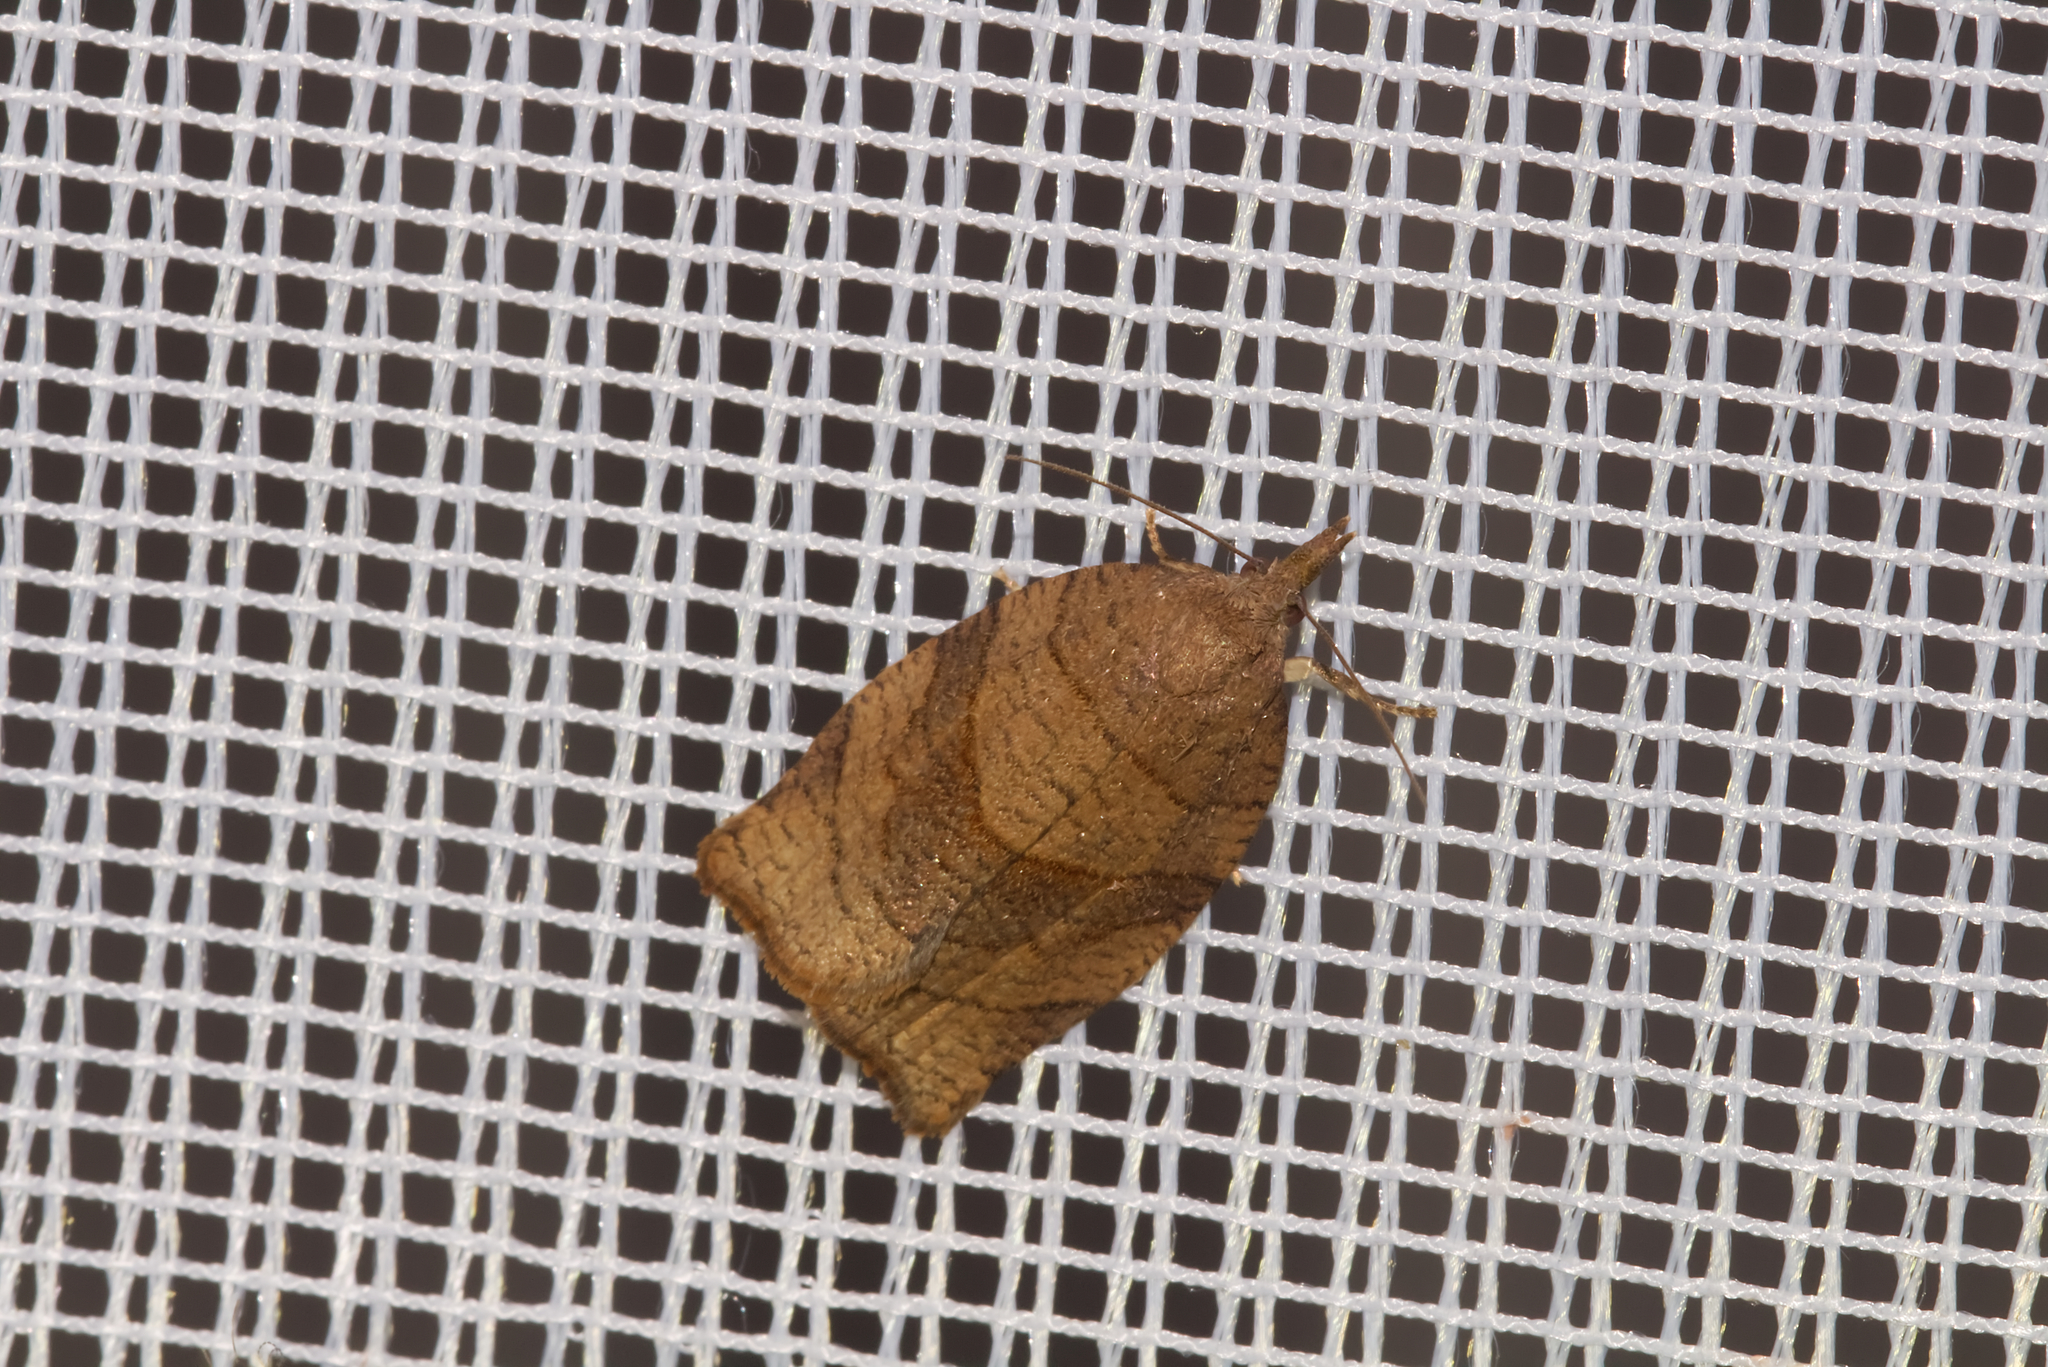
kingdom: Animalia
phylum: Arthropoda
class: Insecta
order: Lepidoptera
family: Tortricidae
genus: Pandemis
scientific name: Pandemis dumetana
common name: Thicket twist
